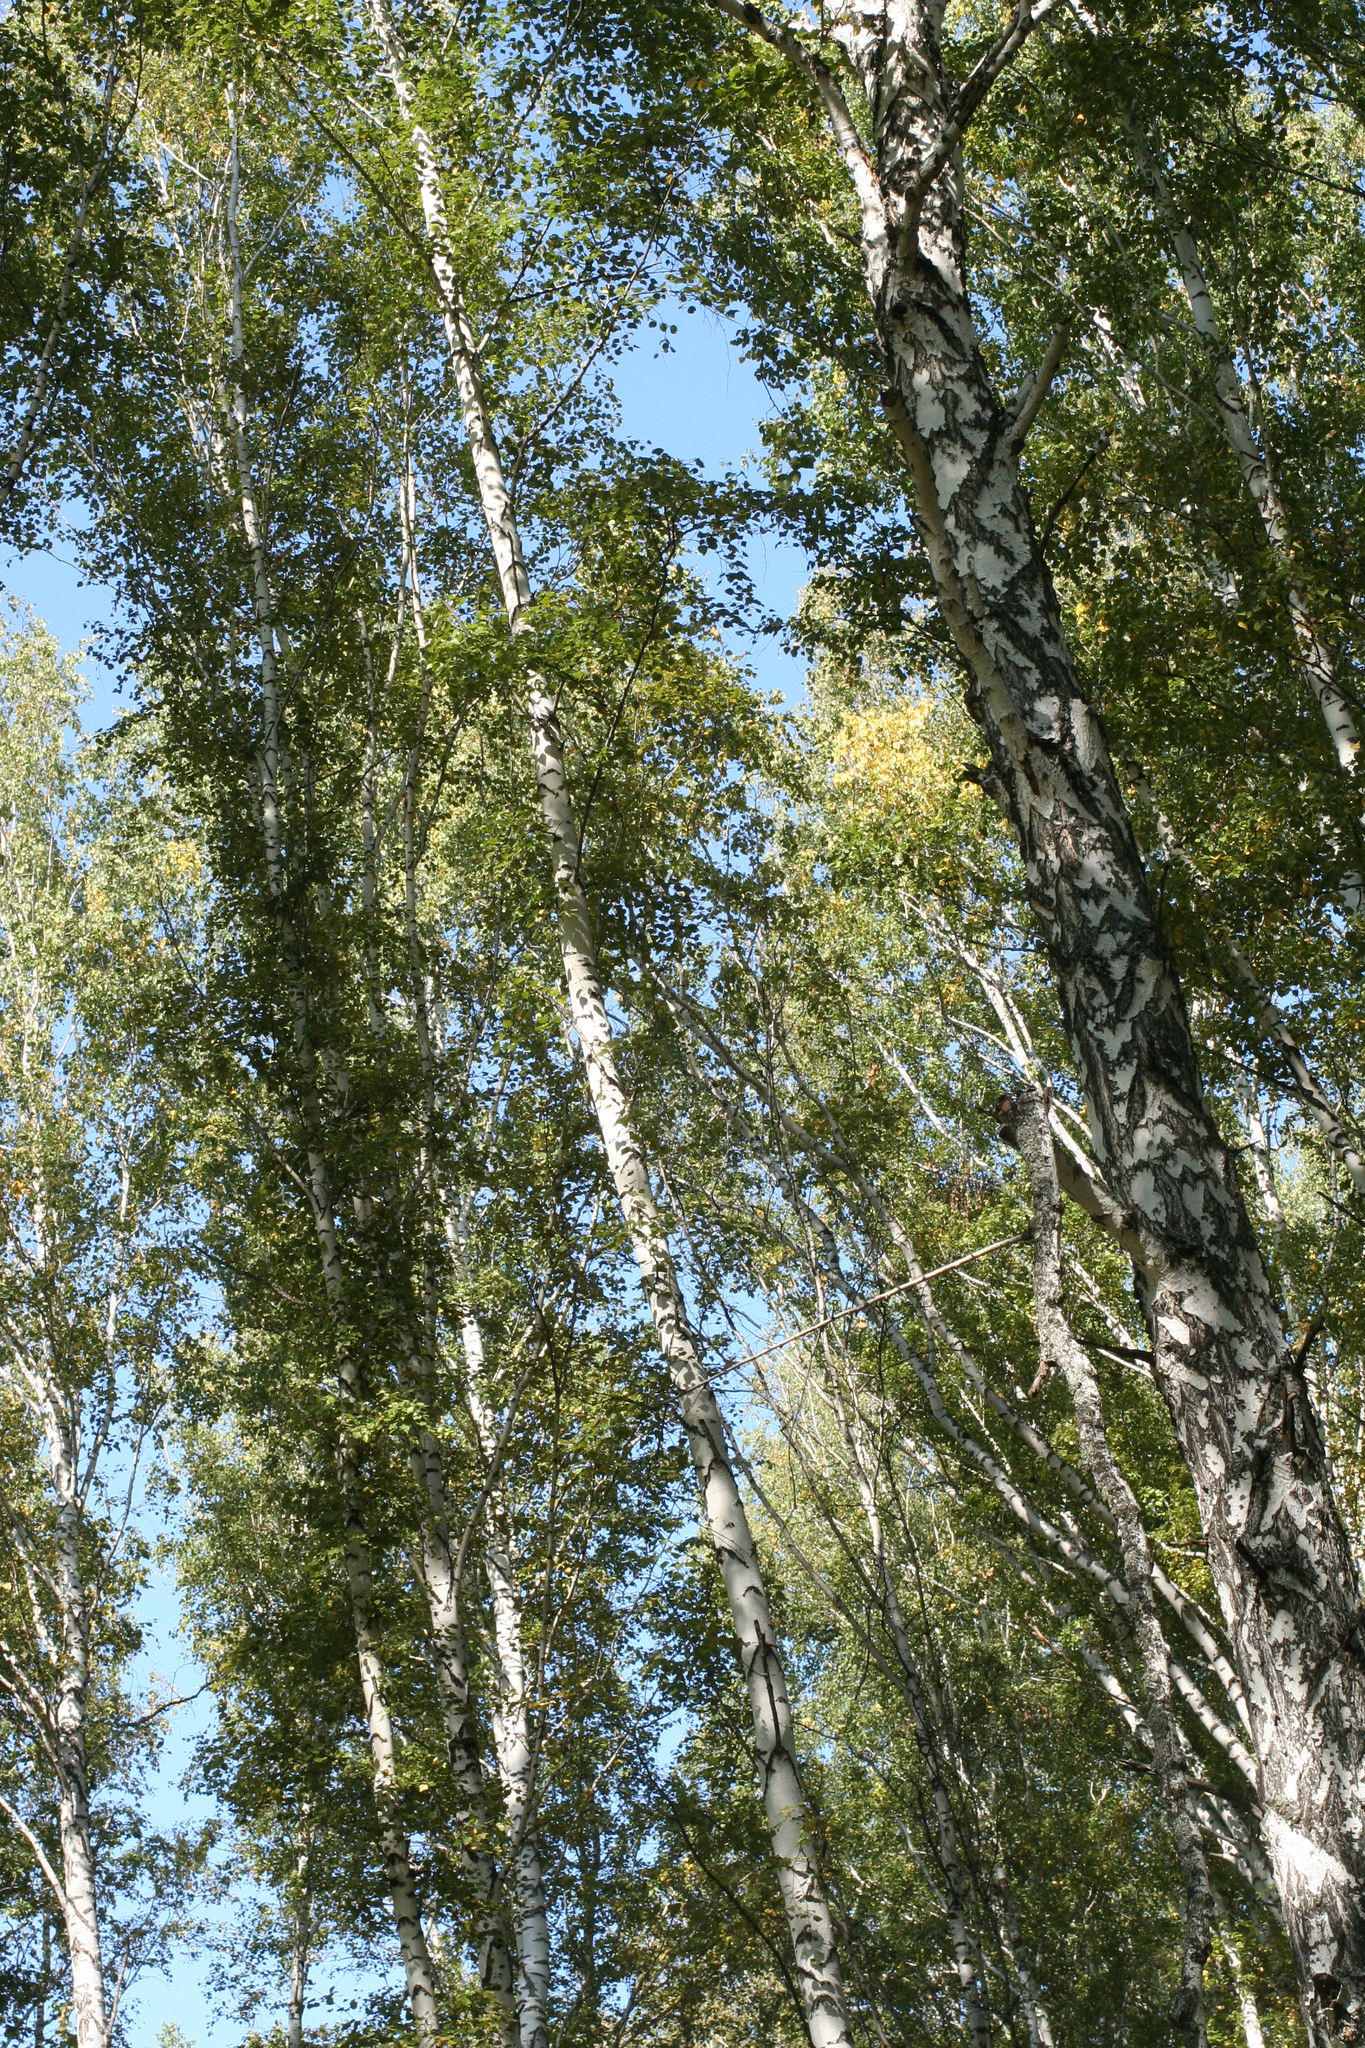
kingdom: Plantae
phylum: Tracheophyta
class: Magnoliopsida
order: Fagales
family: Betulaceae
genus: Betula
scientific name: Betula pendula
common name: Silver birch
